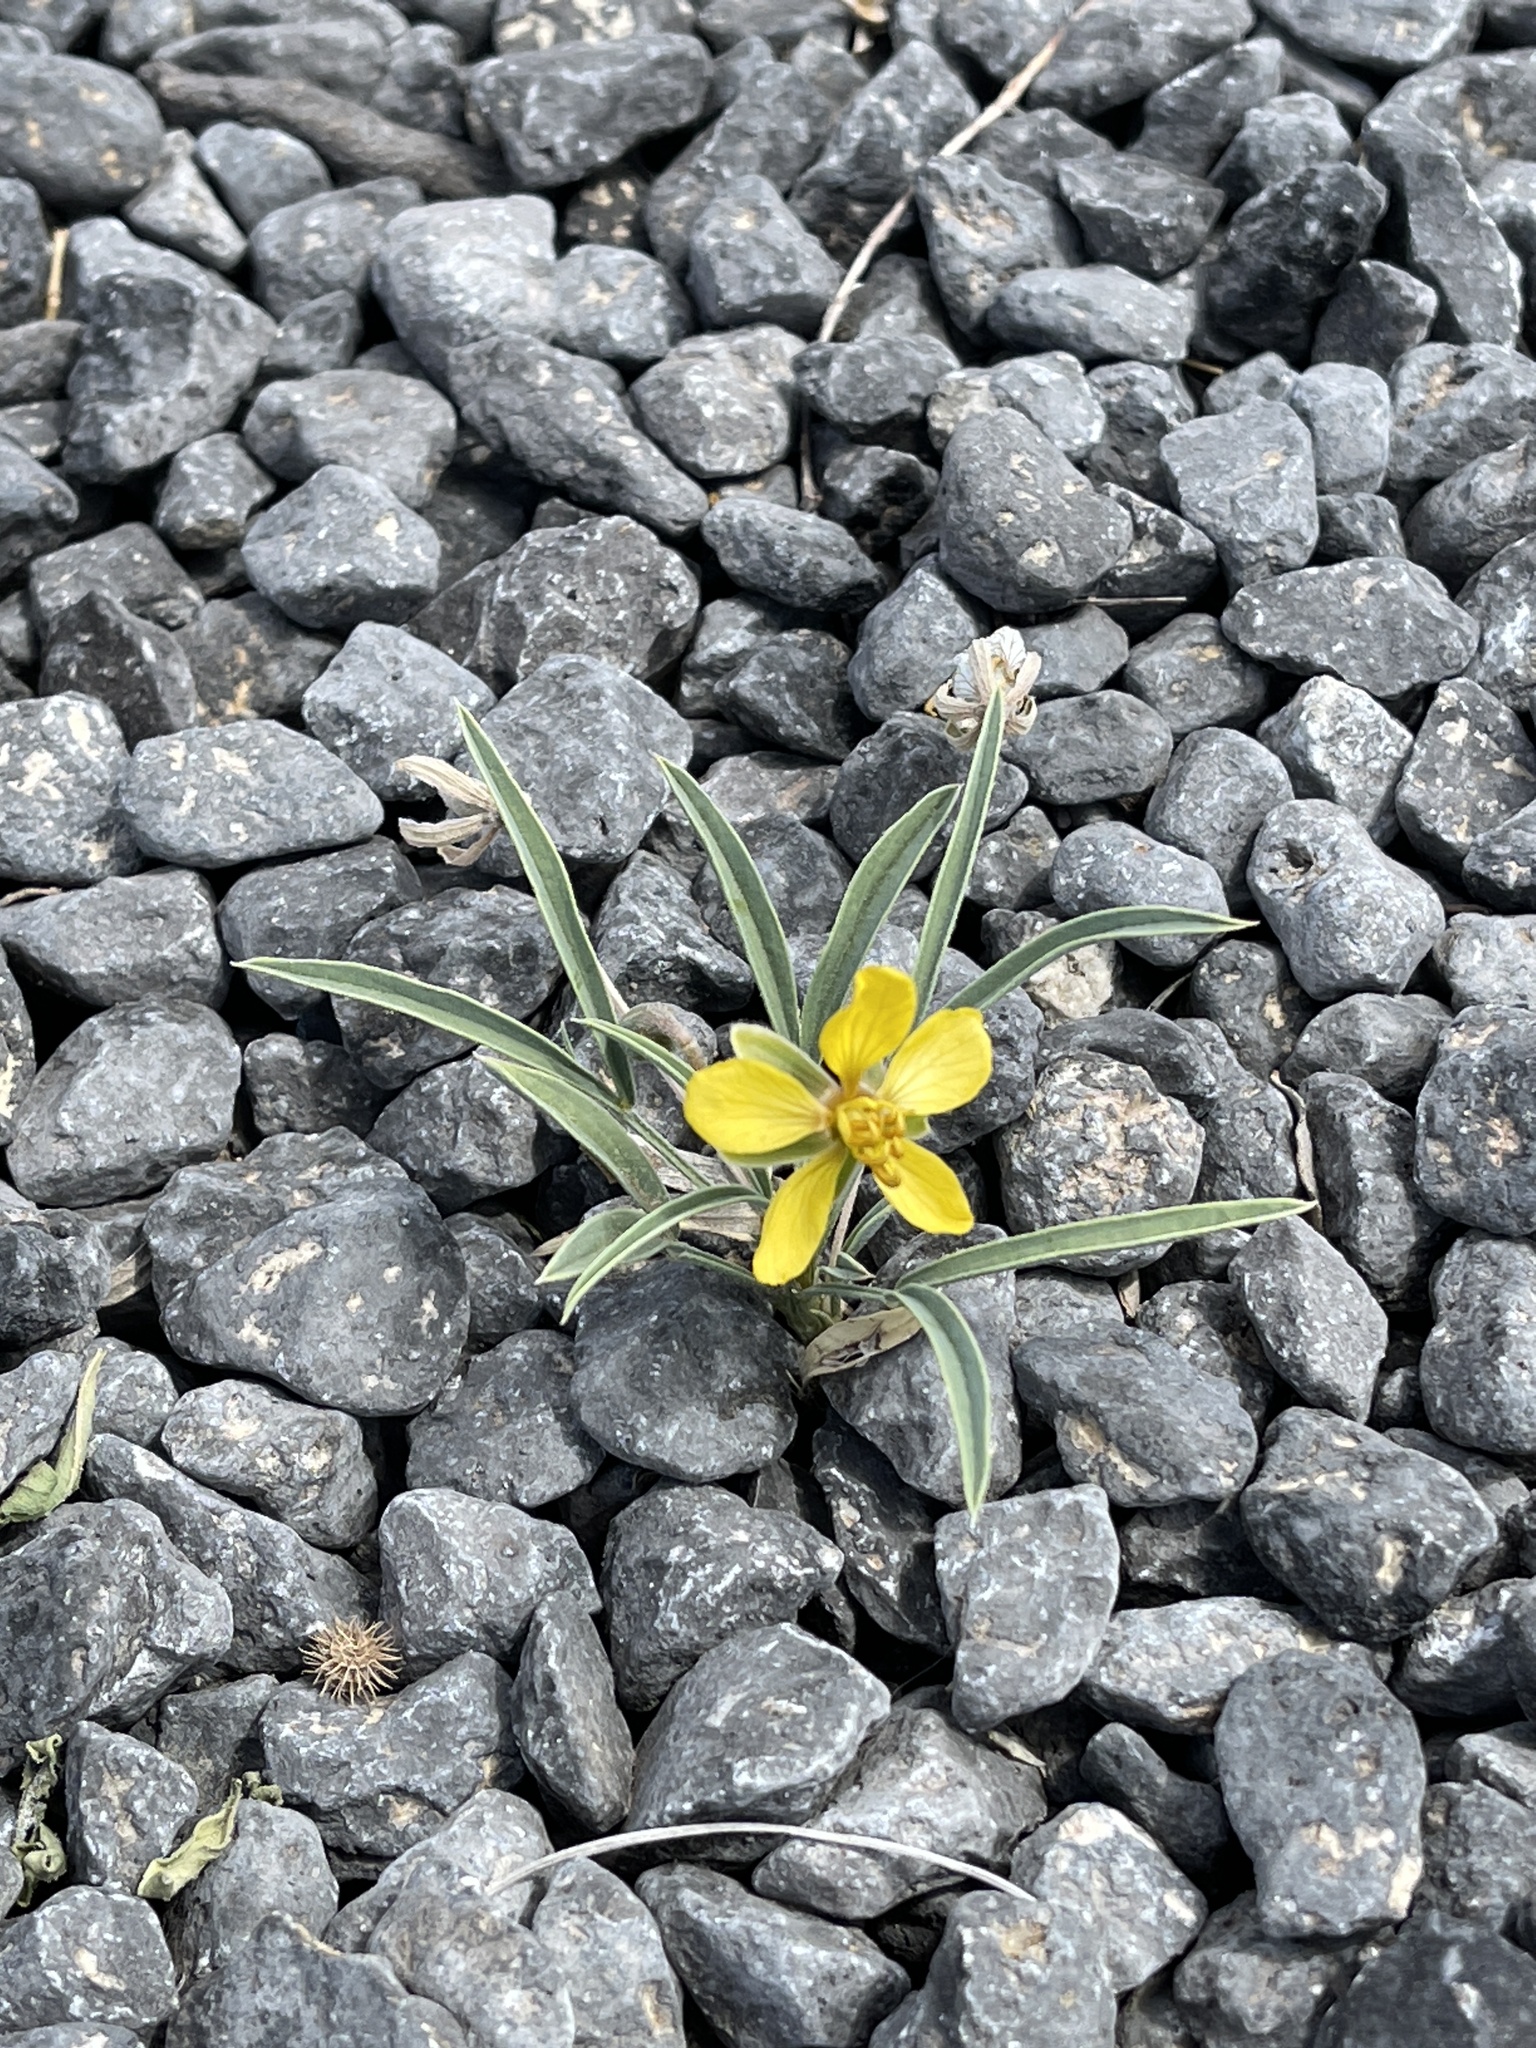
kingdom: Plantae
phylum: Tracheophyta
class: Magnoliopsida
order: Fabales
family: Fabaceae
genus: Senna
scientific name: Senna pumilio
